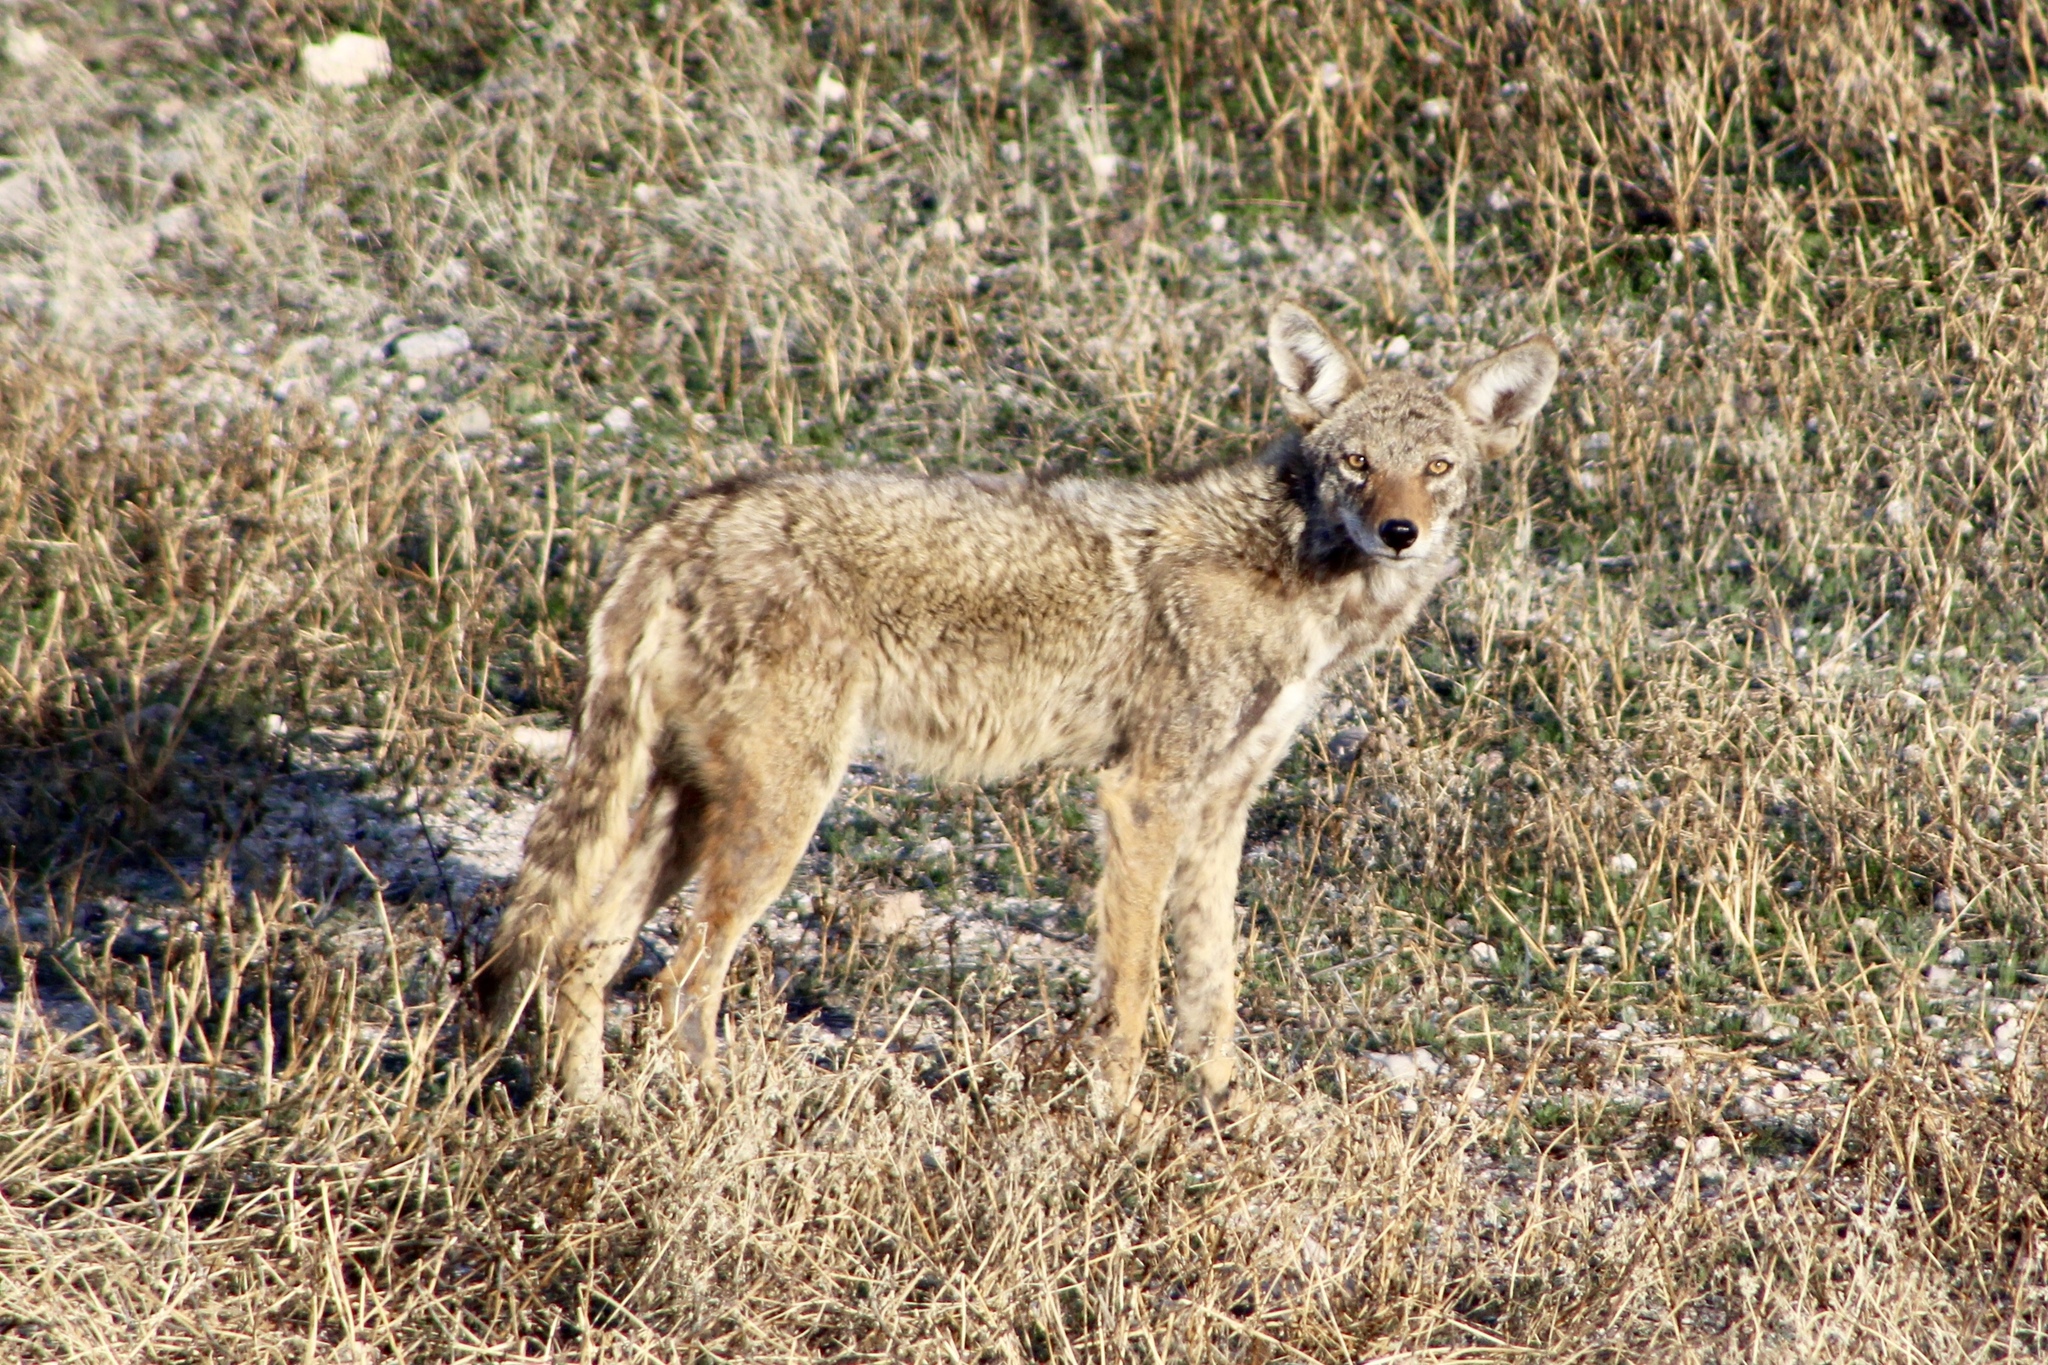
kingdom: Animalia
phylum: Chordata
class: Mammalia
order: Carnivora
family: Canidae
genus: Canis
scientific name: Canis latrans
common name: Coyote
